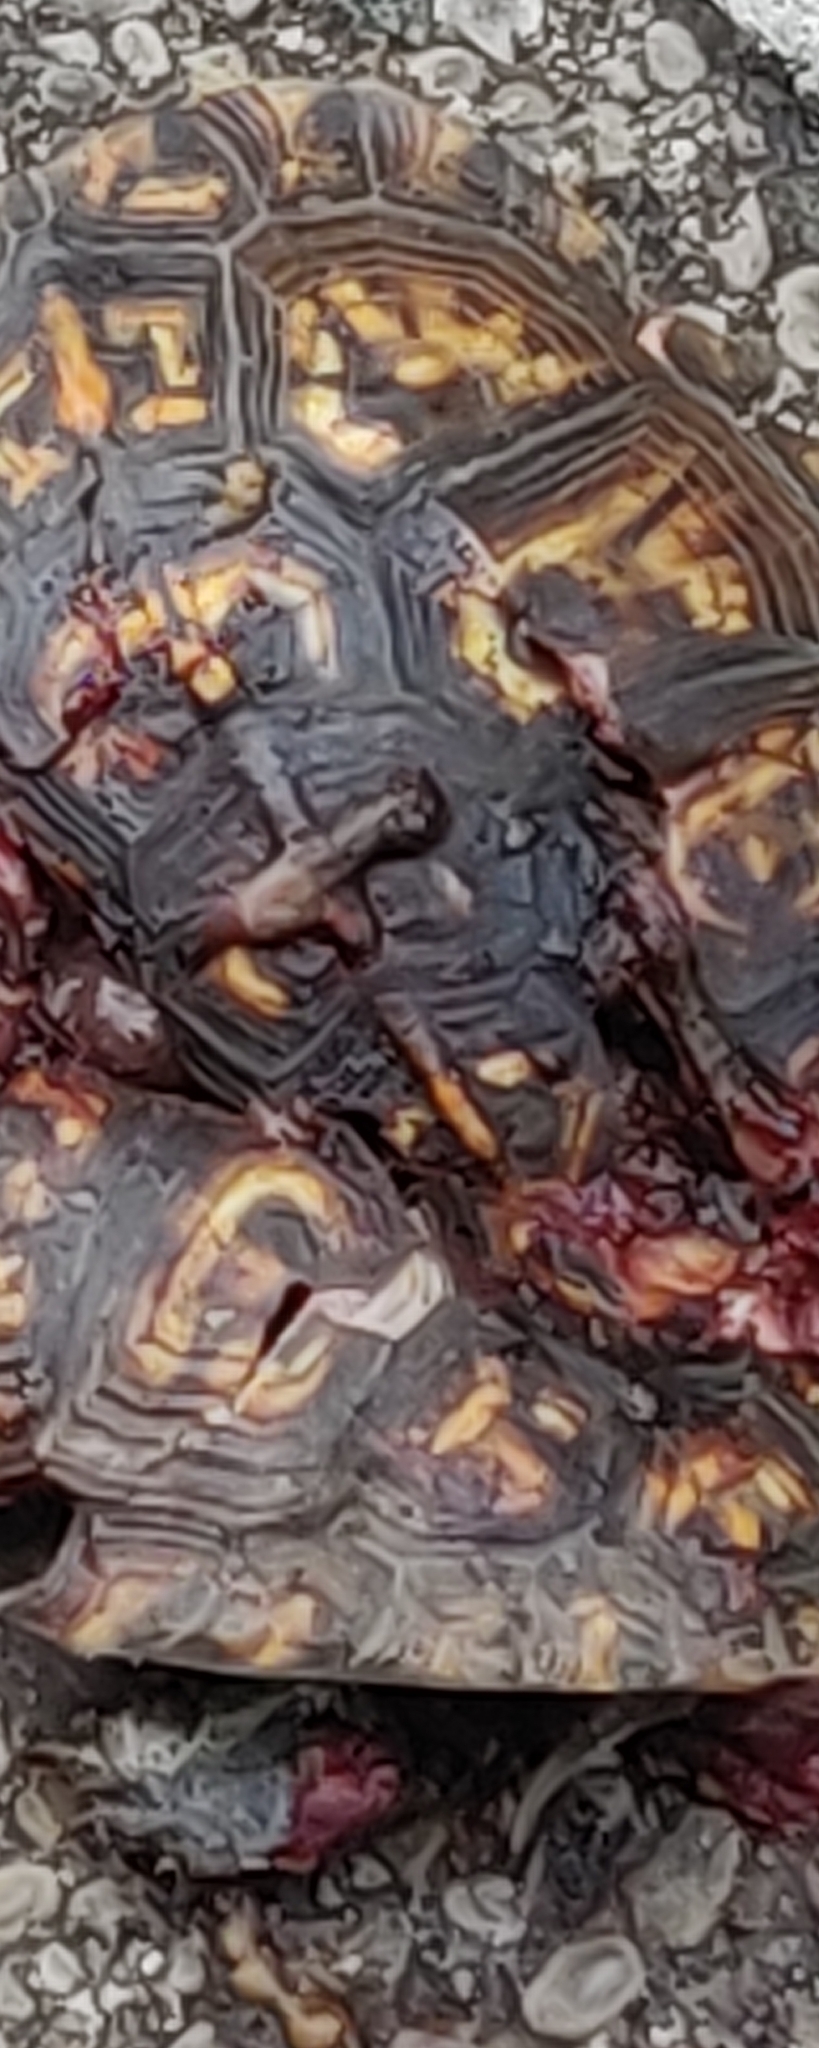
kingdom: Animalia
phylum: Chordata
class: Testudines
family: Emydidae
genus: Terrapene
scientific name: Terrapene carolina
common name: Common box turtle
